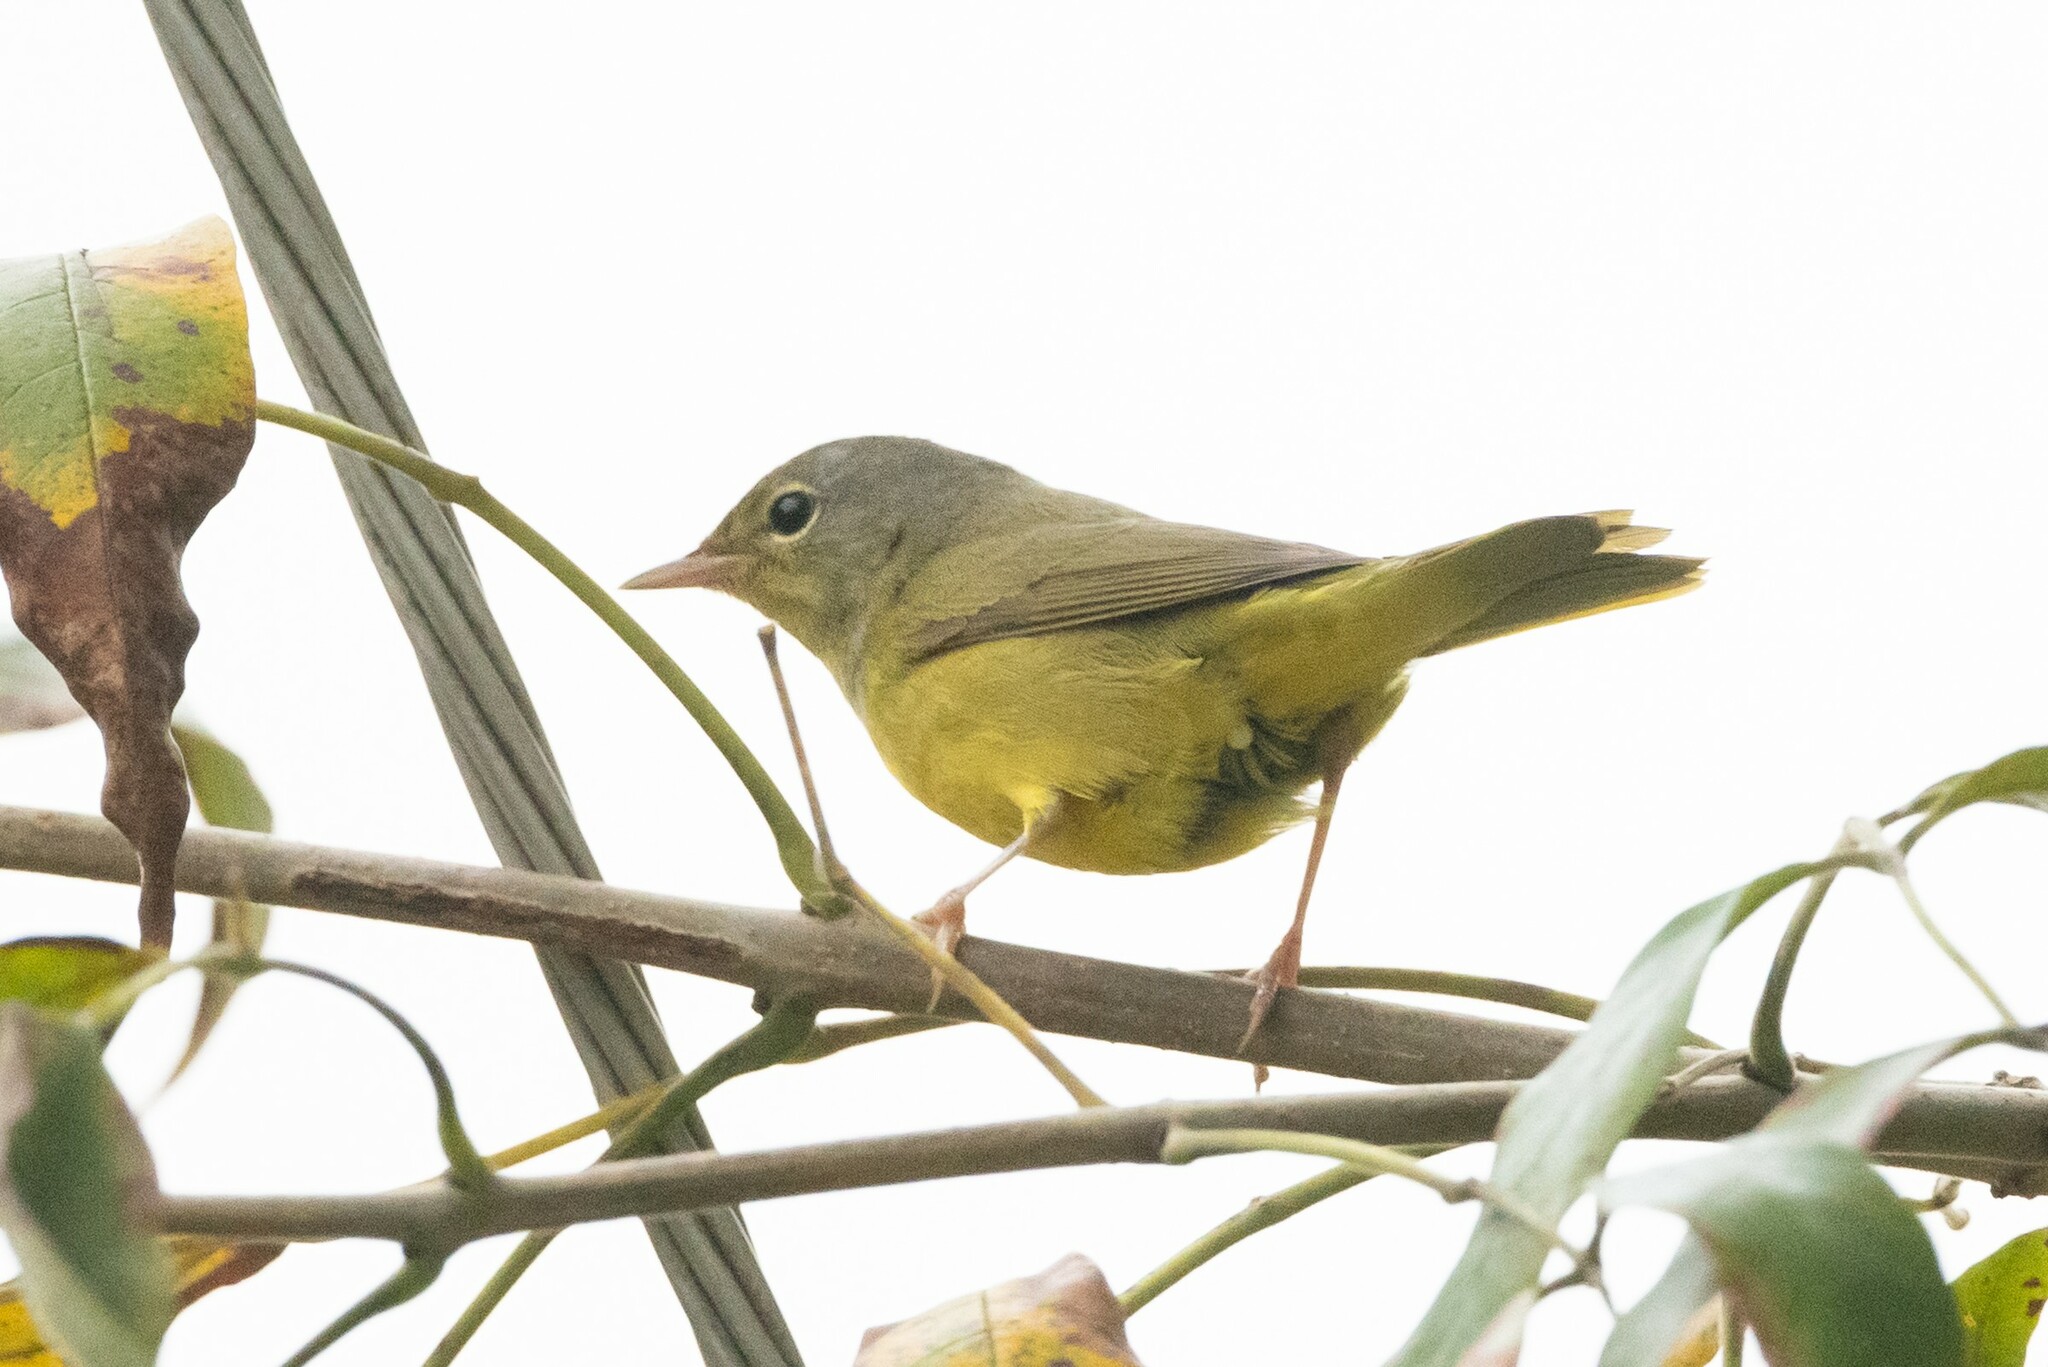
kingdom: Animalia
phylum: Chordata
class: Aves
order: Passeriformes
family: Parulidae
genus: Geothlypis
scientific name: Geothlypis philadelphia
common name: Mourning warbler
